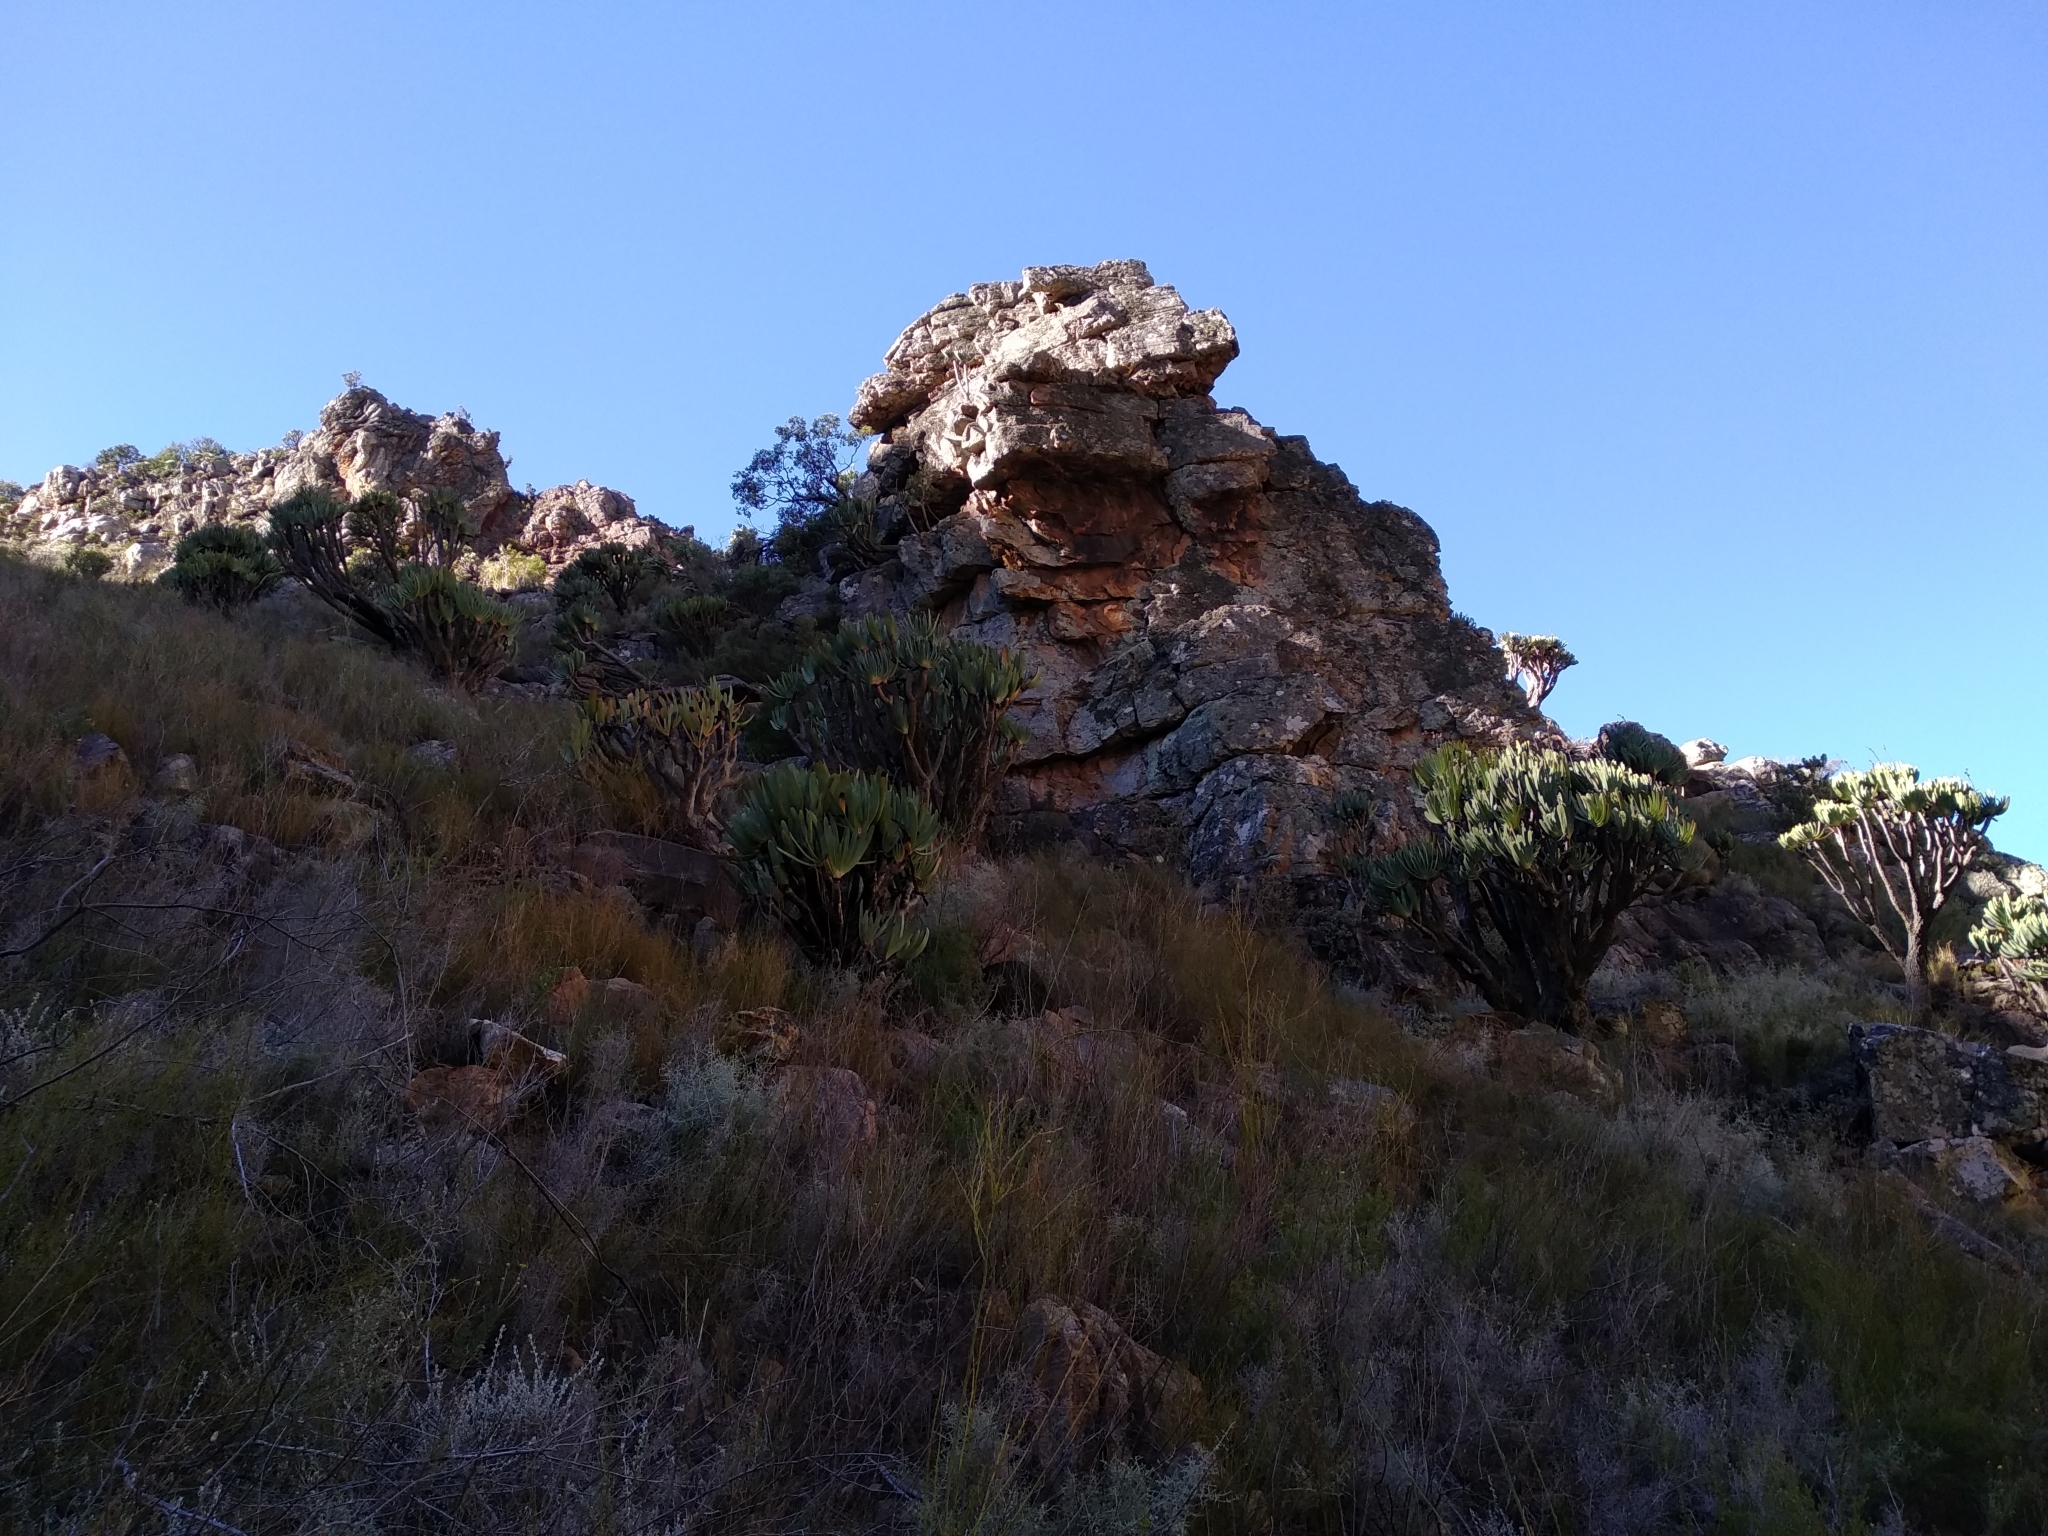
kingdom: Plantae
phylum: Tracheophyta
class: Liliopsida
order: Asparagales
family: Asphodelaceae
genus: Kumara
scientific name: Kumara plicatilis
